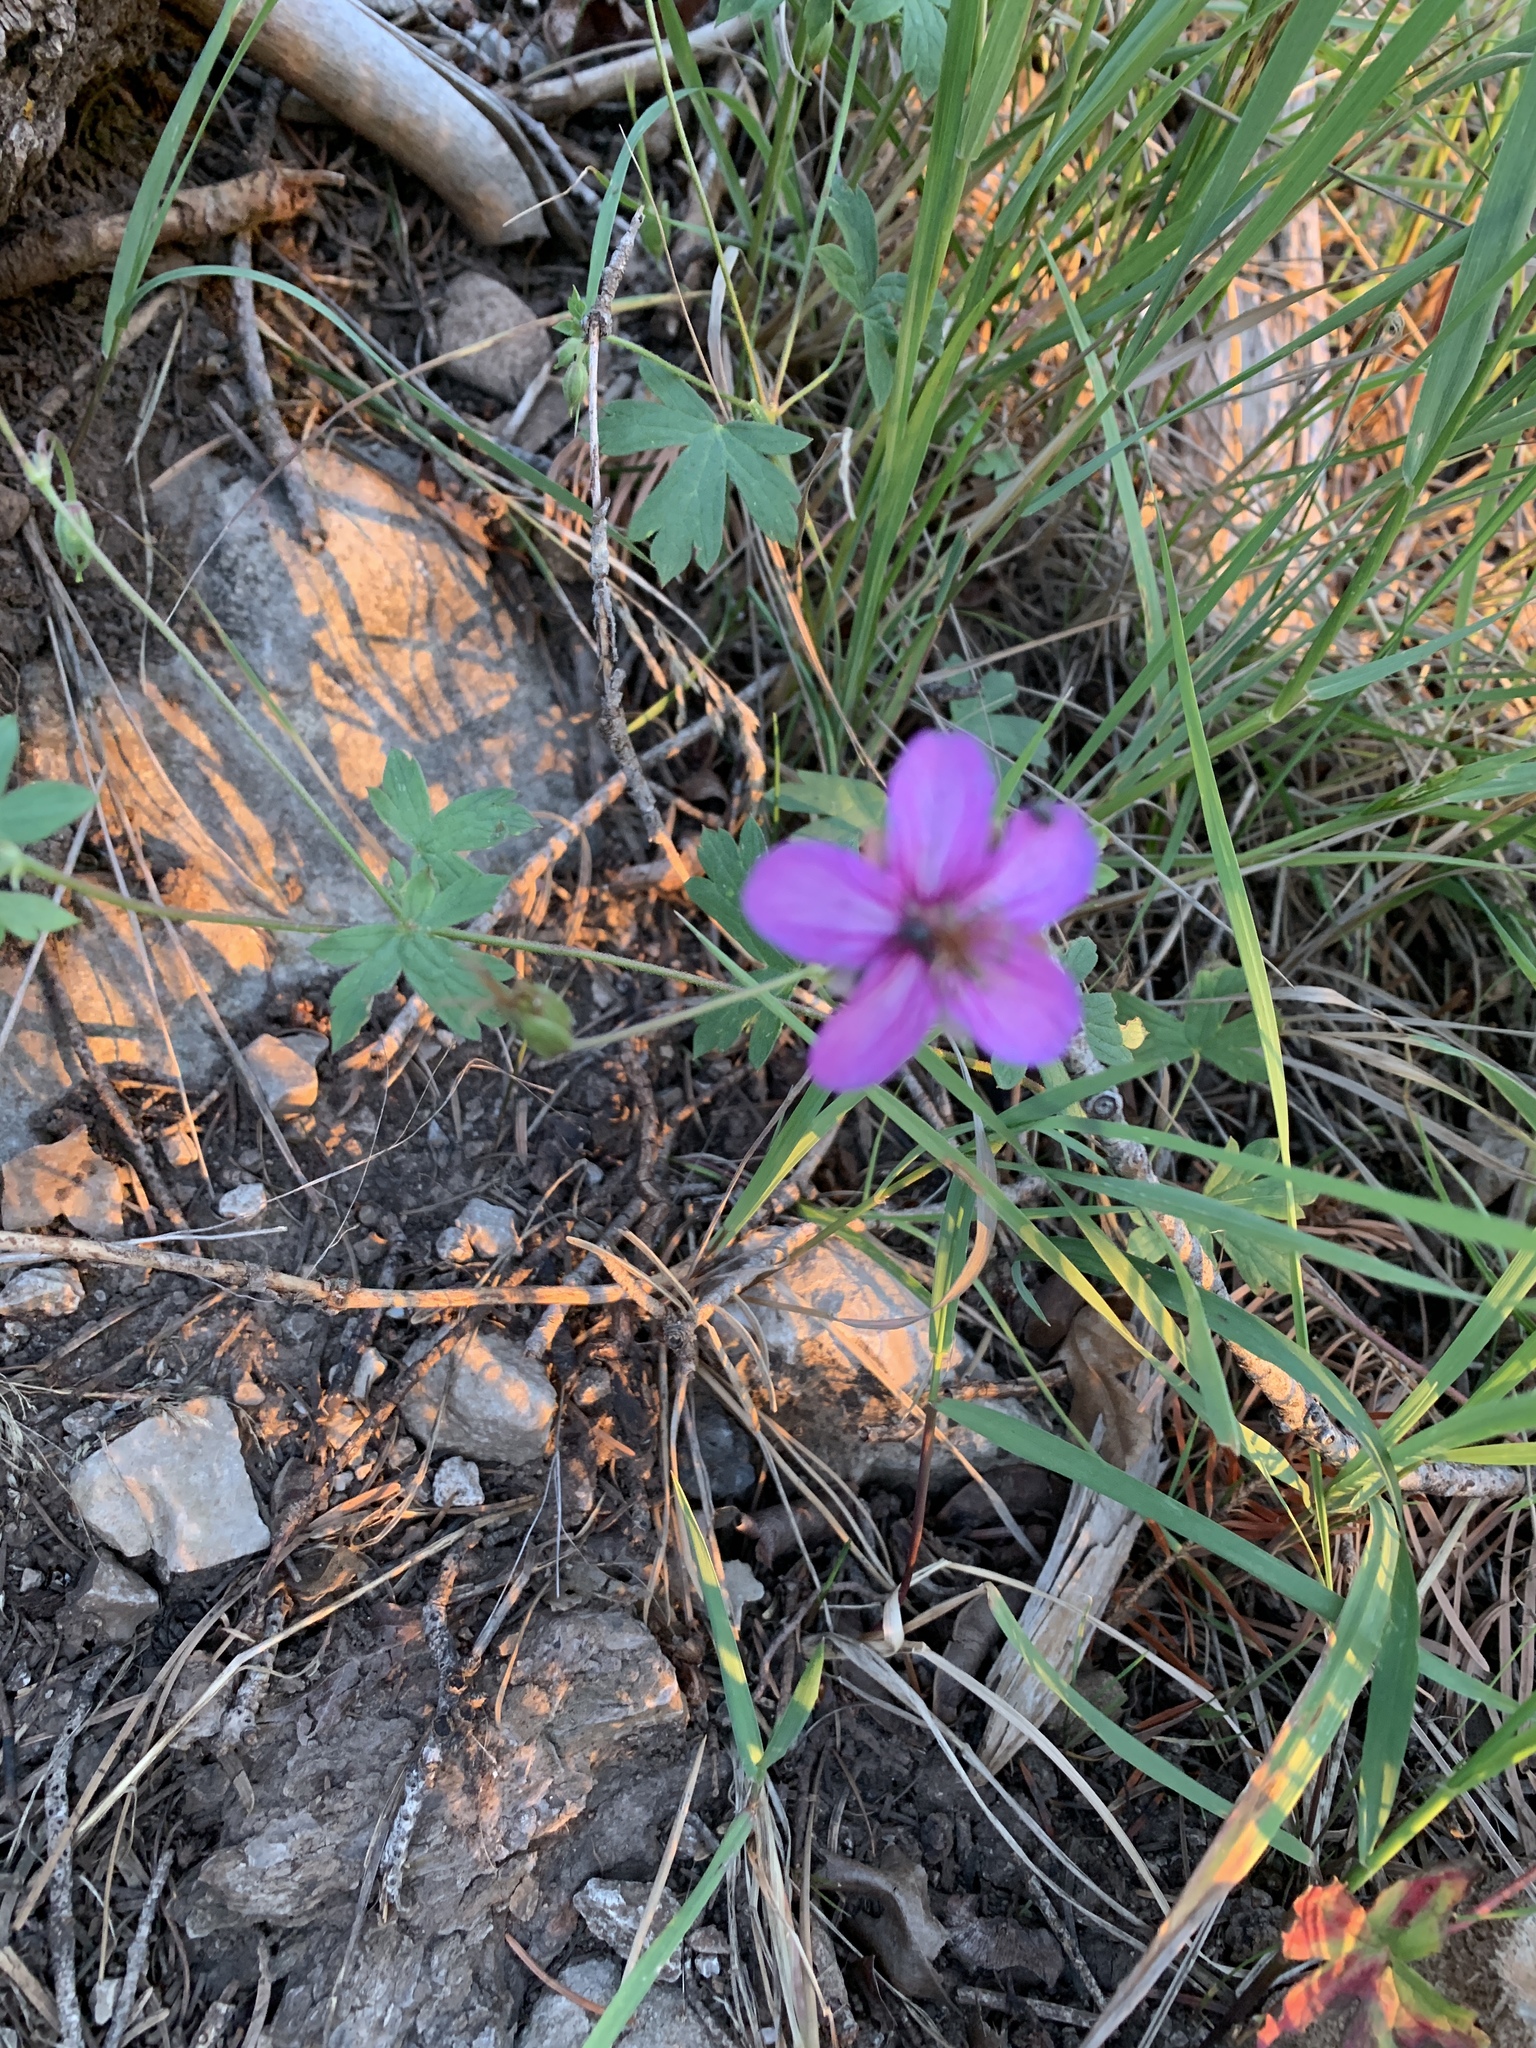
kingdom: Plantae
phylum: Tracheophyta
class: Magnoliopsida
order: Geraniales
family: Geraniaceae
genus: Geranium
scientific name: Geranium caespitosum
